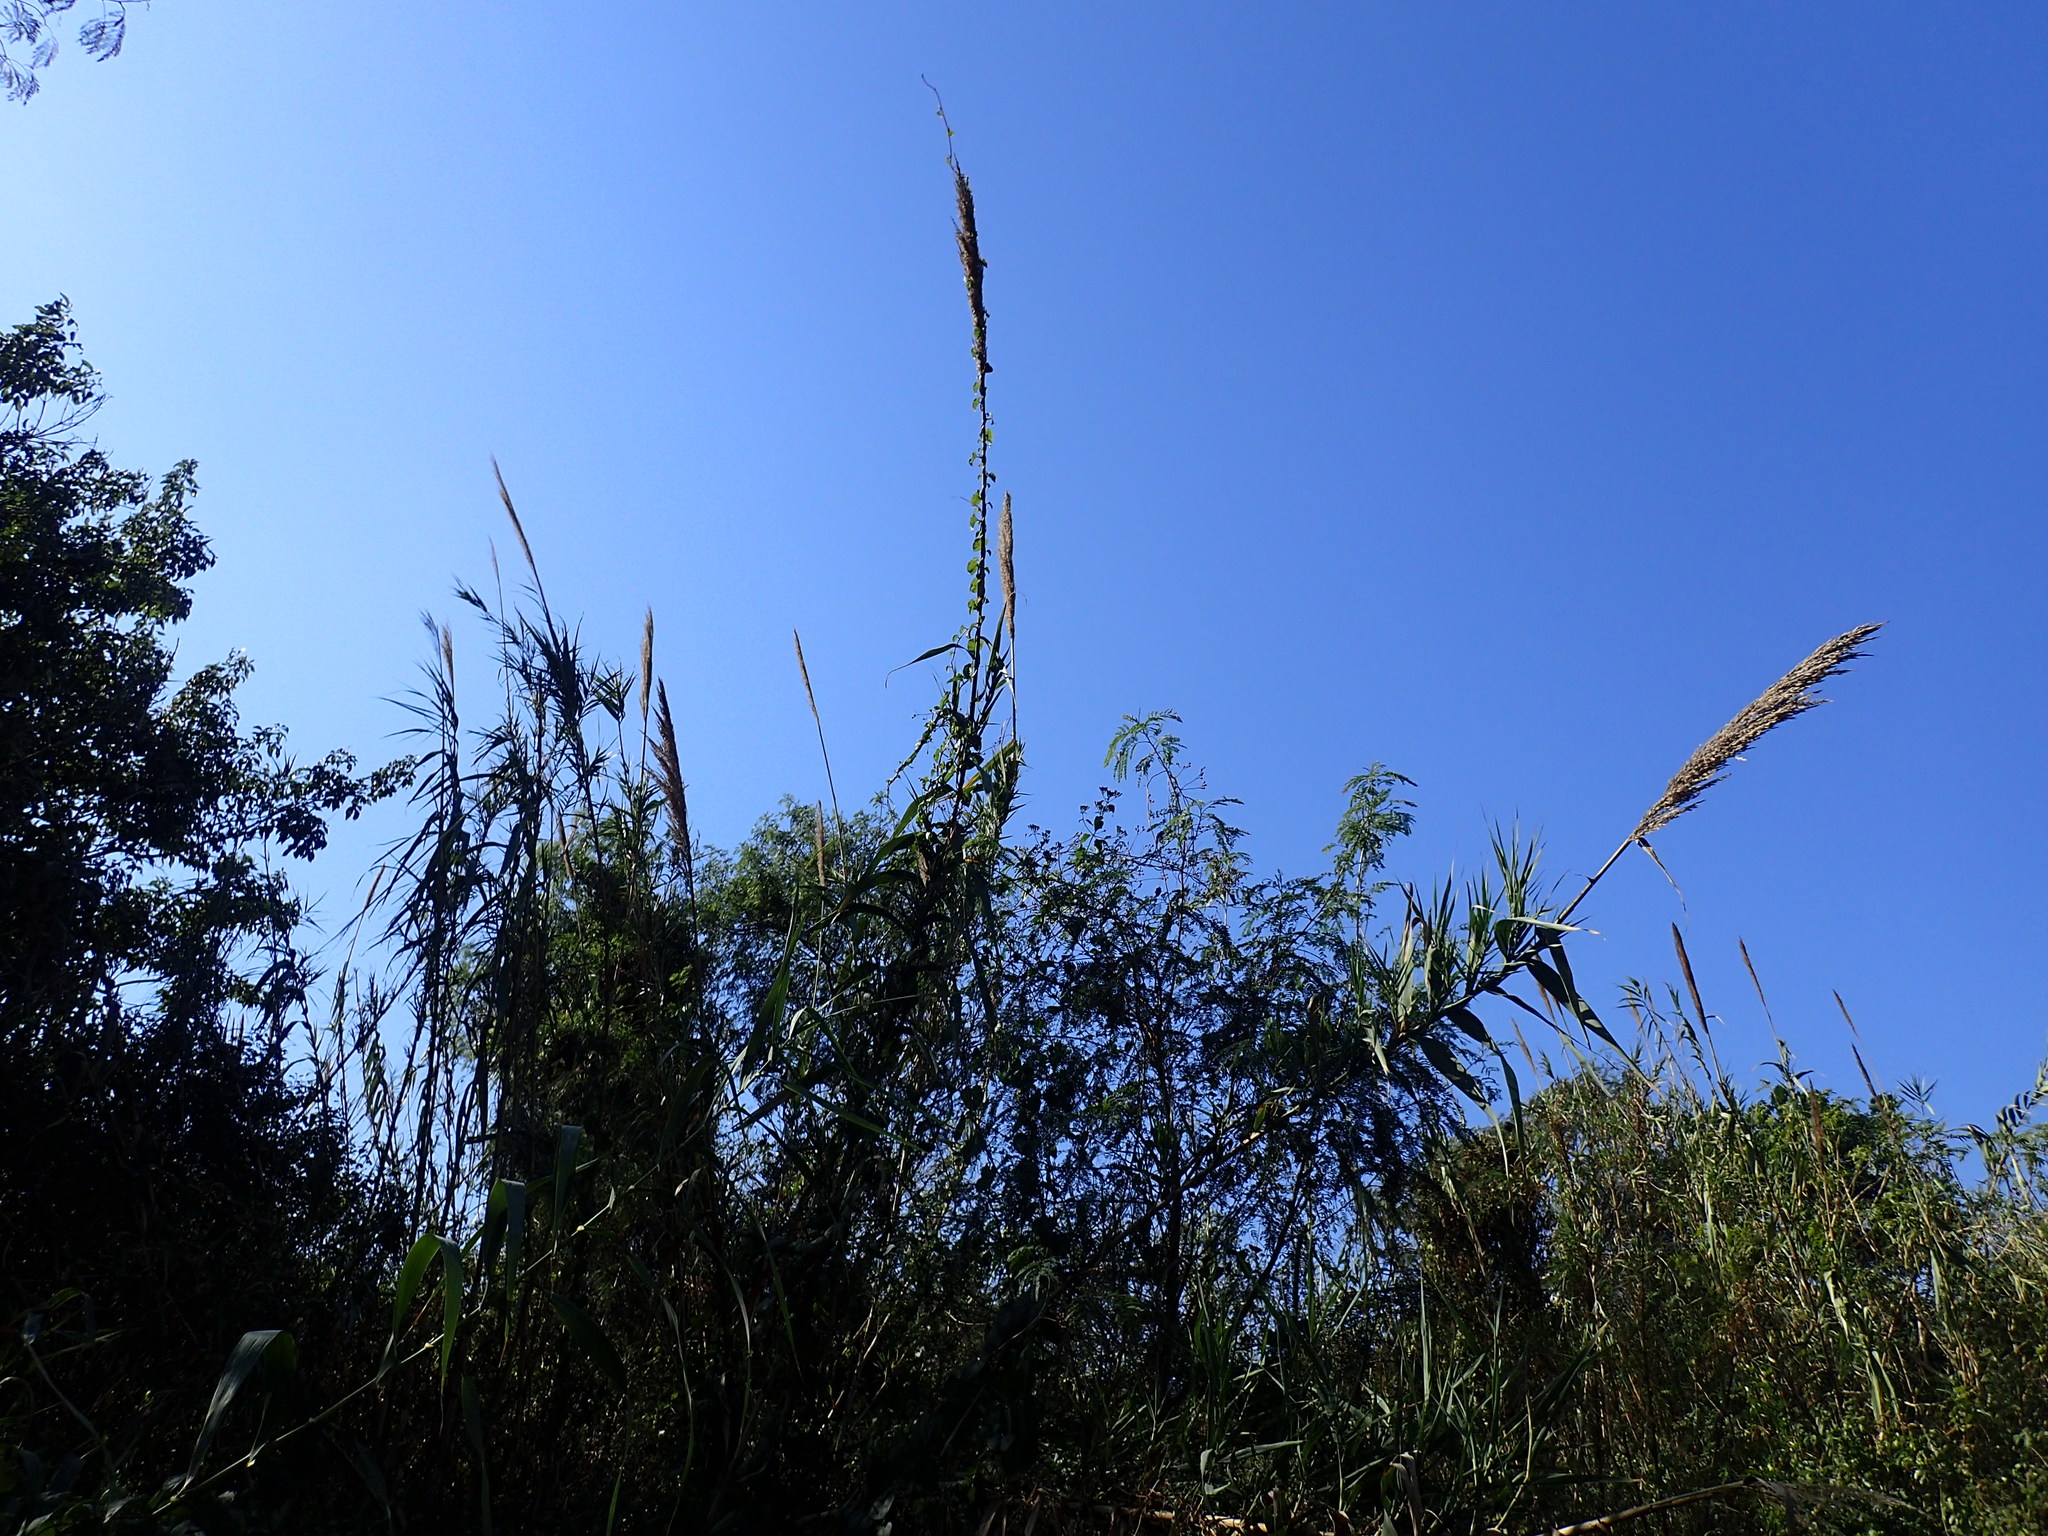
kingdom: Plantae
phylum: Tracheophyta
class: Liliopsida
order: Poales
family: Poaceae
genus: Arundo
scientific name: Arundo donax
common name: Giant reed
